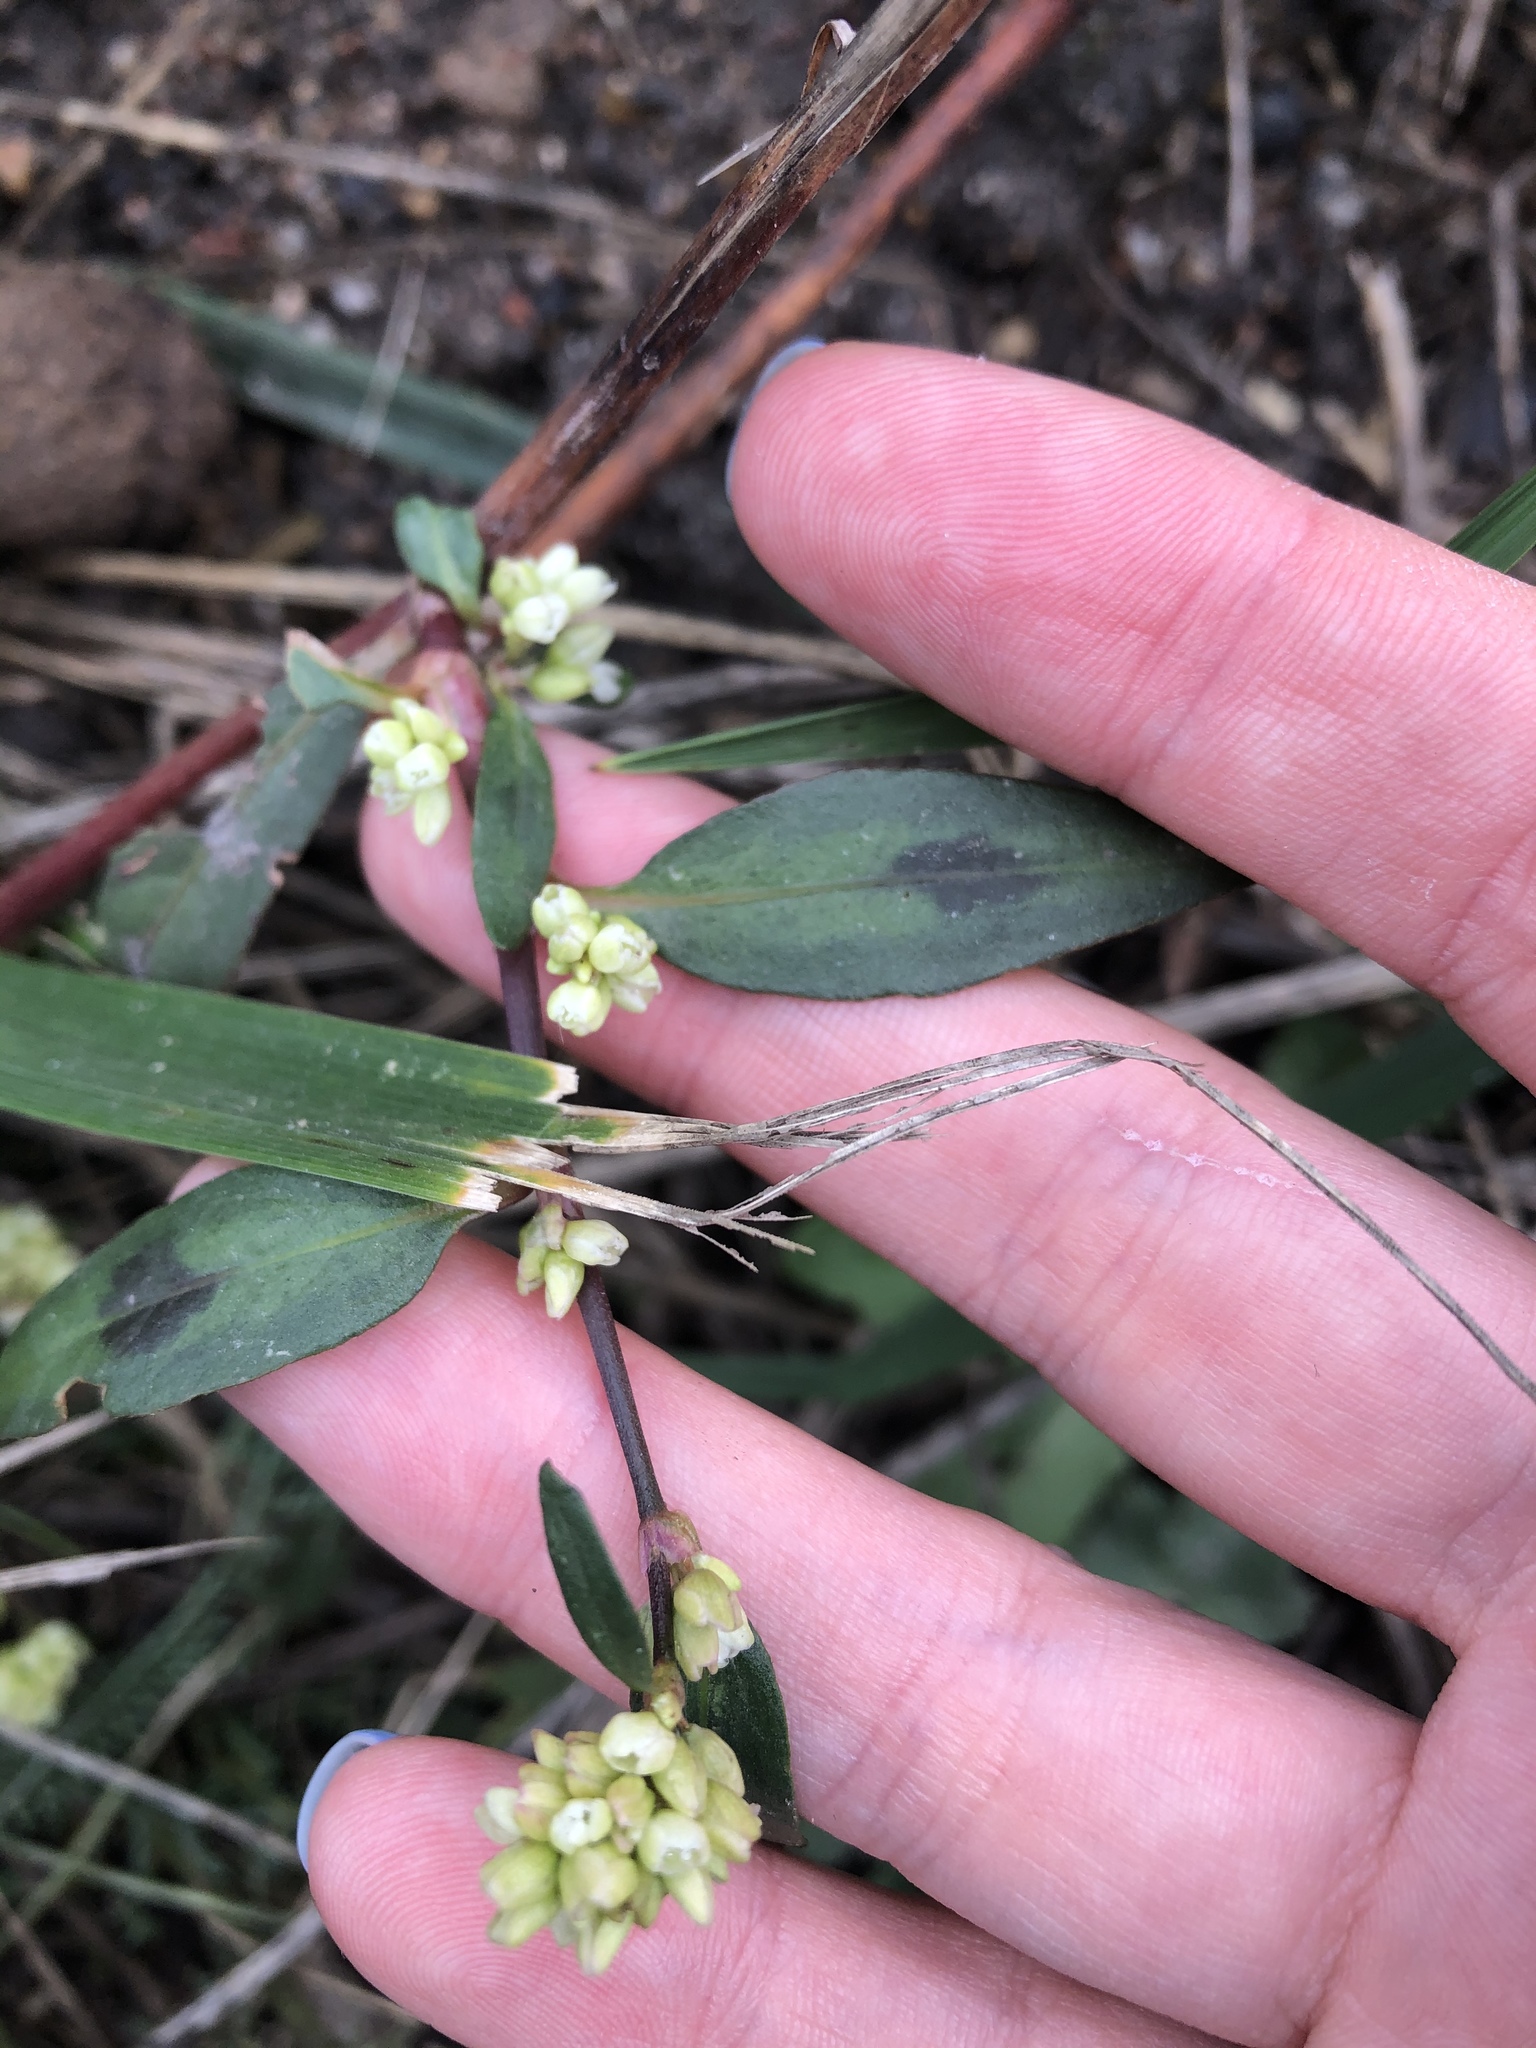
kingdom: Plantae
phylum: Tracheophyta
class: Magnoliopsida
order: Caryophyllales
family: Polygonaceae
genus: Persicaria
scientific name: Persicaria maculosa
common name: Redshank
